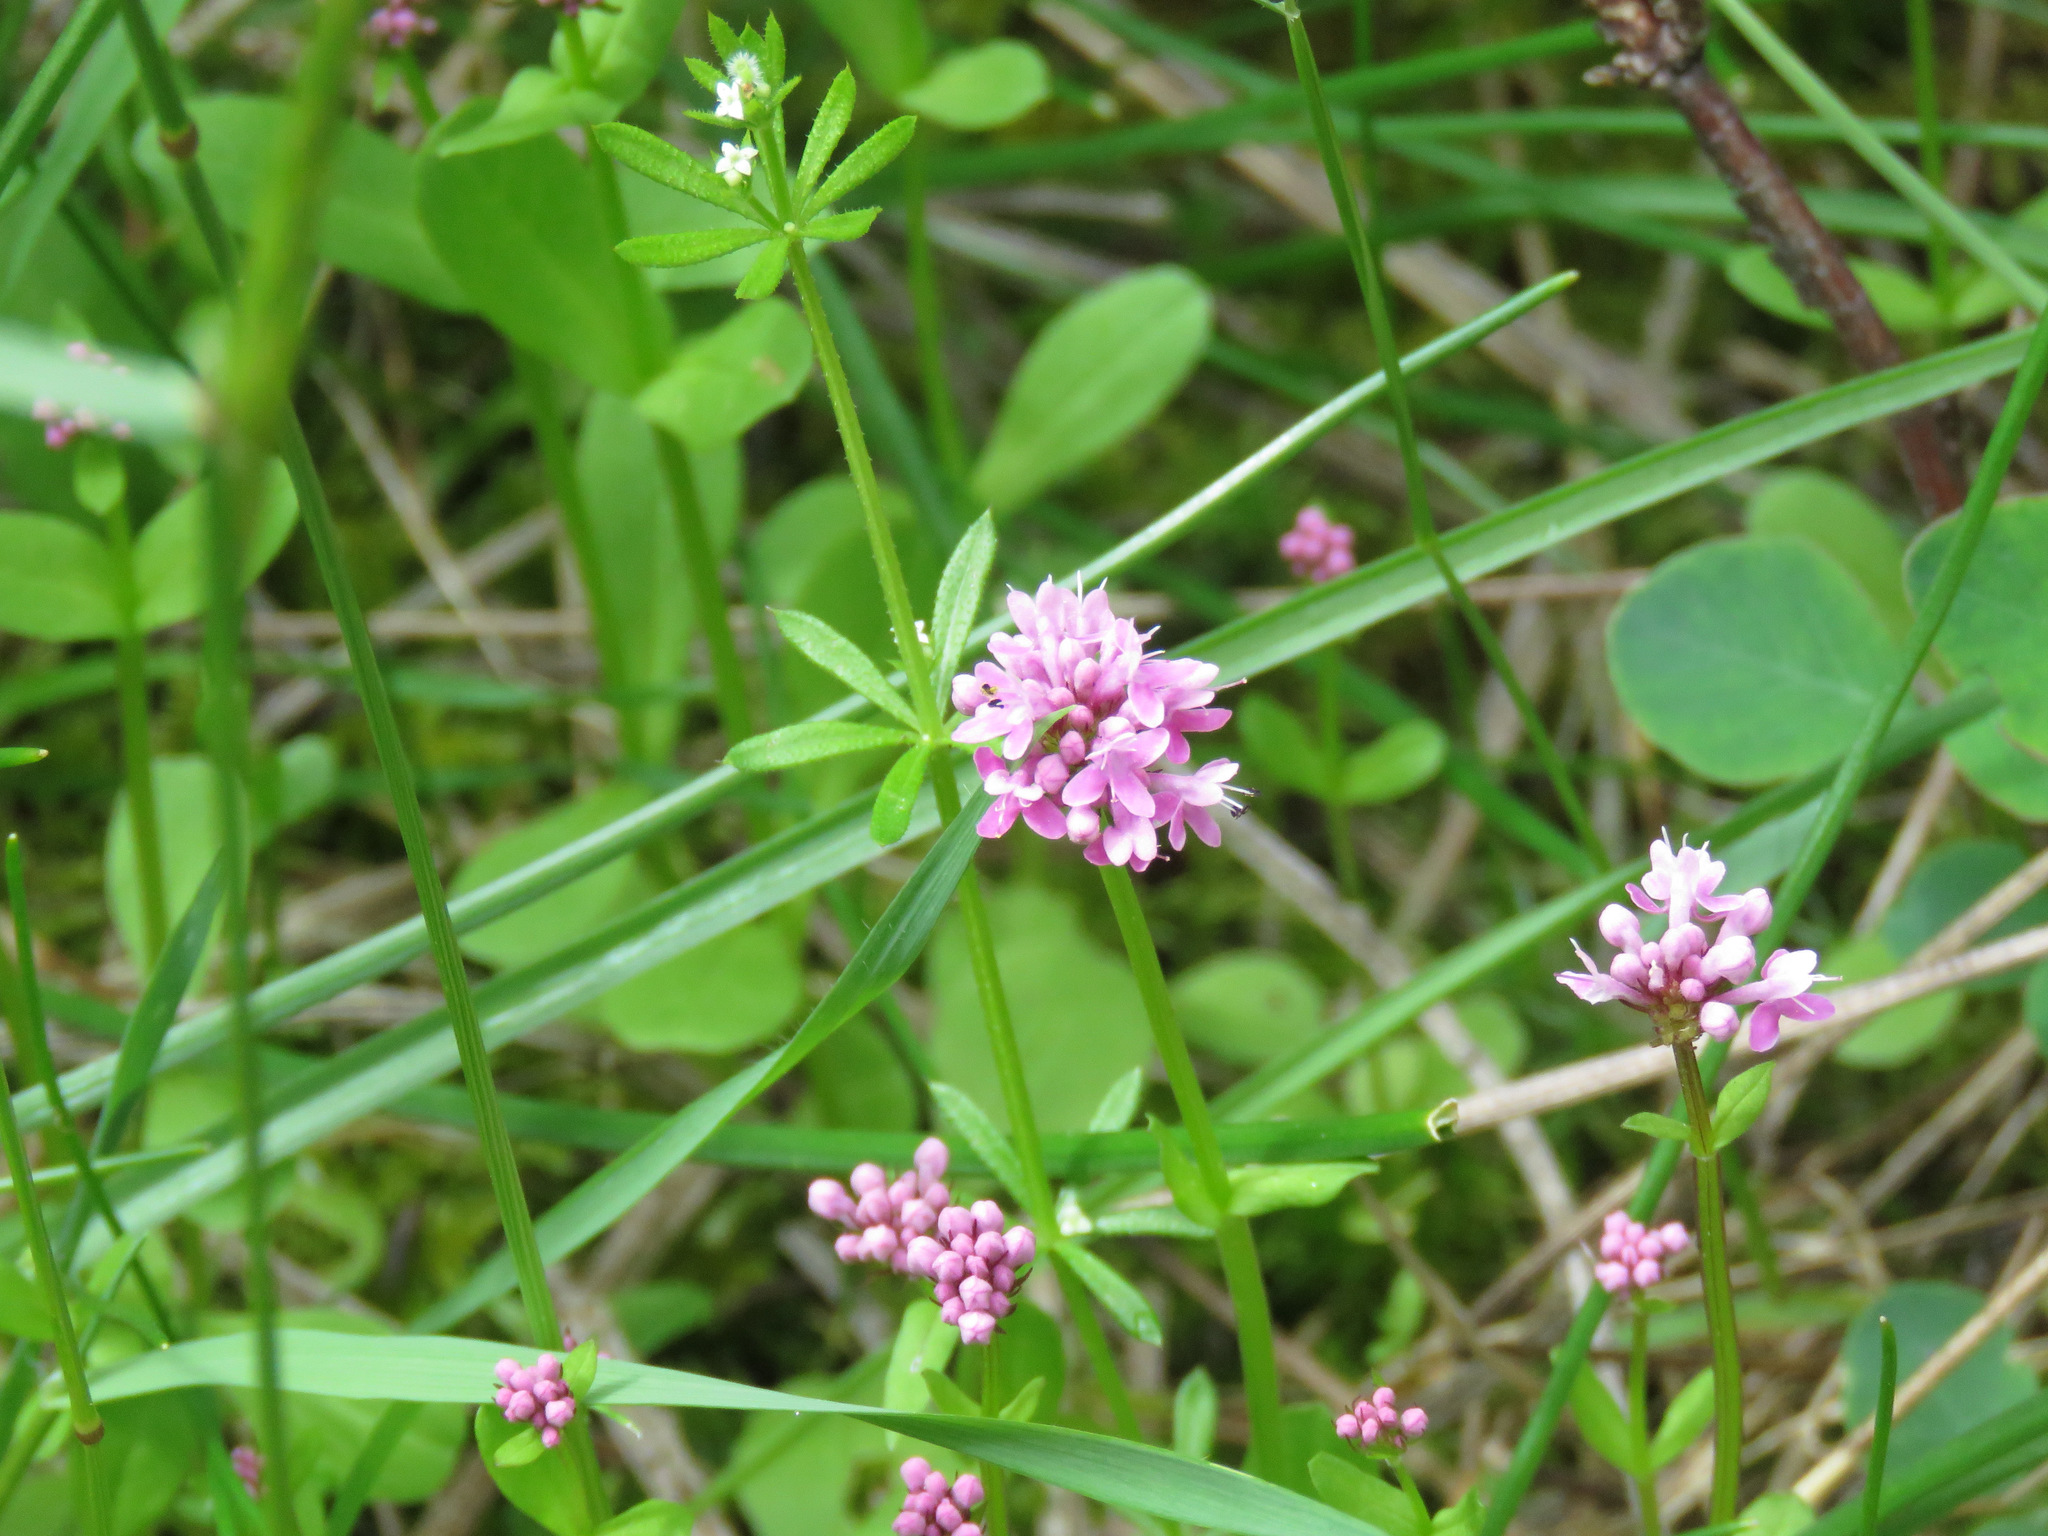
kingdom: Plantae
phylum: Tracheophyta
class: Magnoliopsida
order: Dipsacales
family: Caprifoliaceae
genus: Plectritis
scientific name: Plectritis congesta
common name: Pink plectritis
